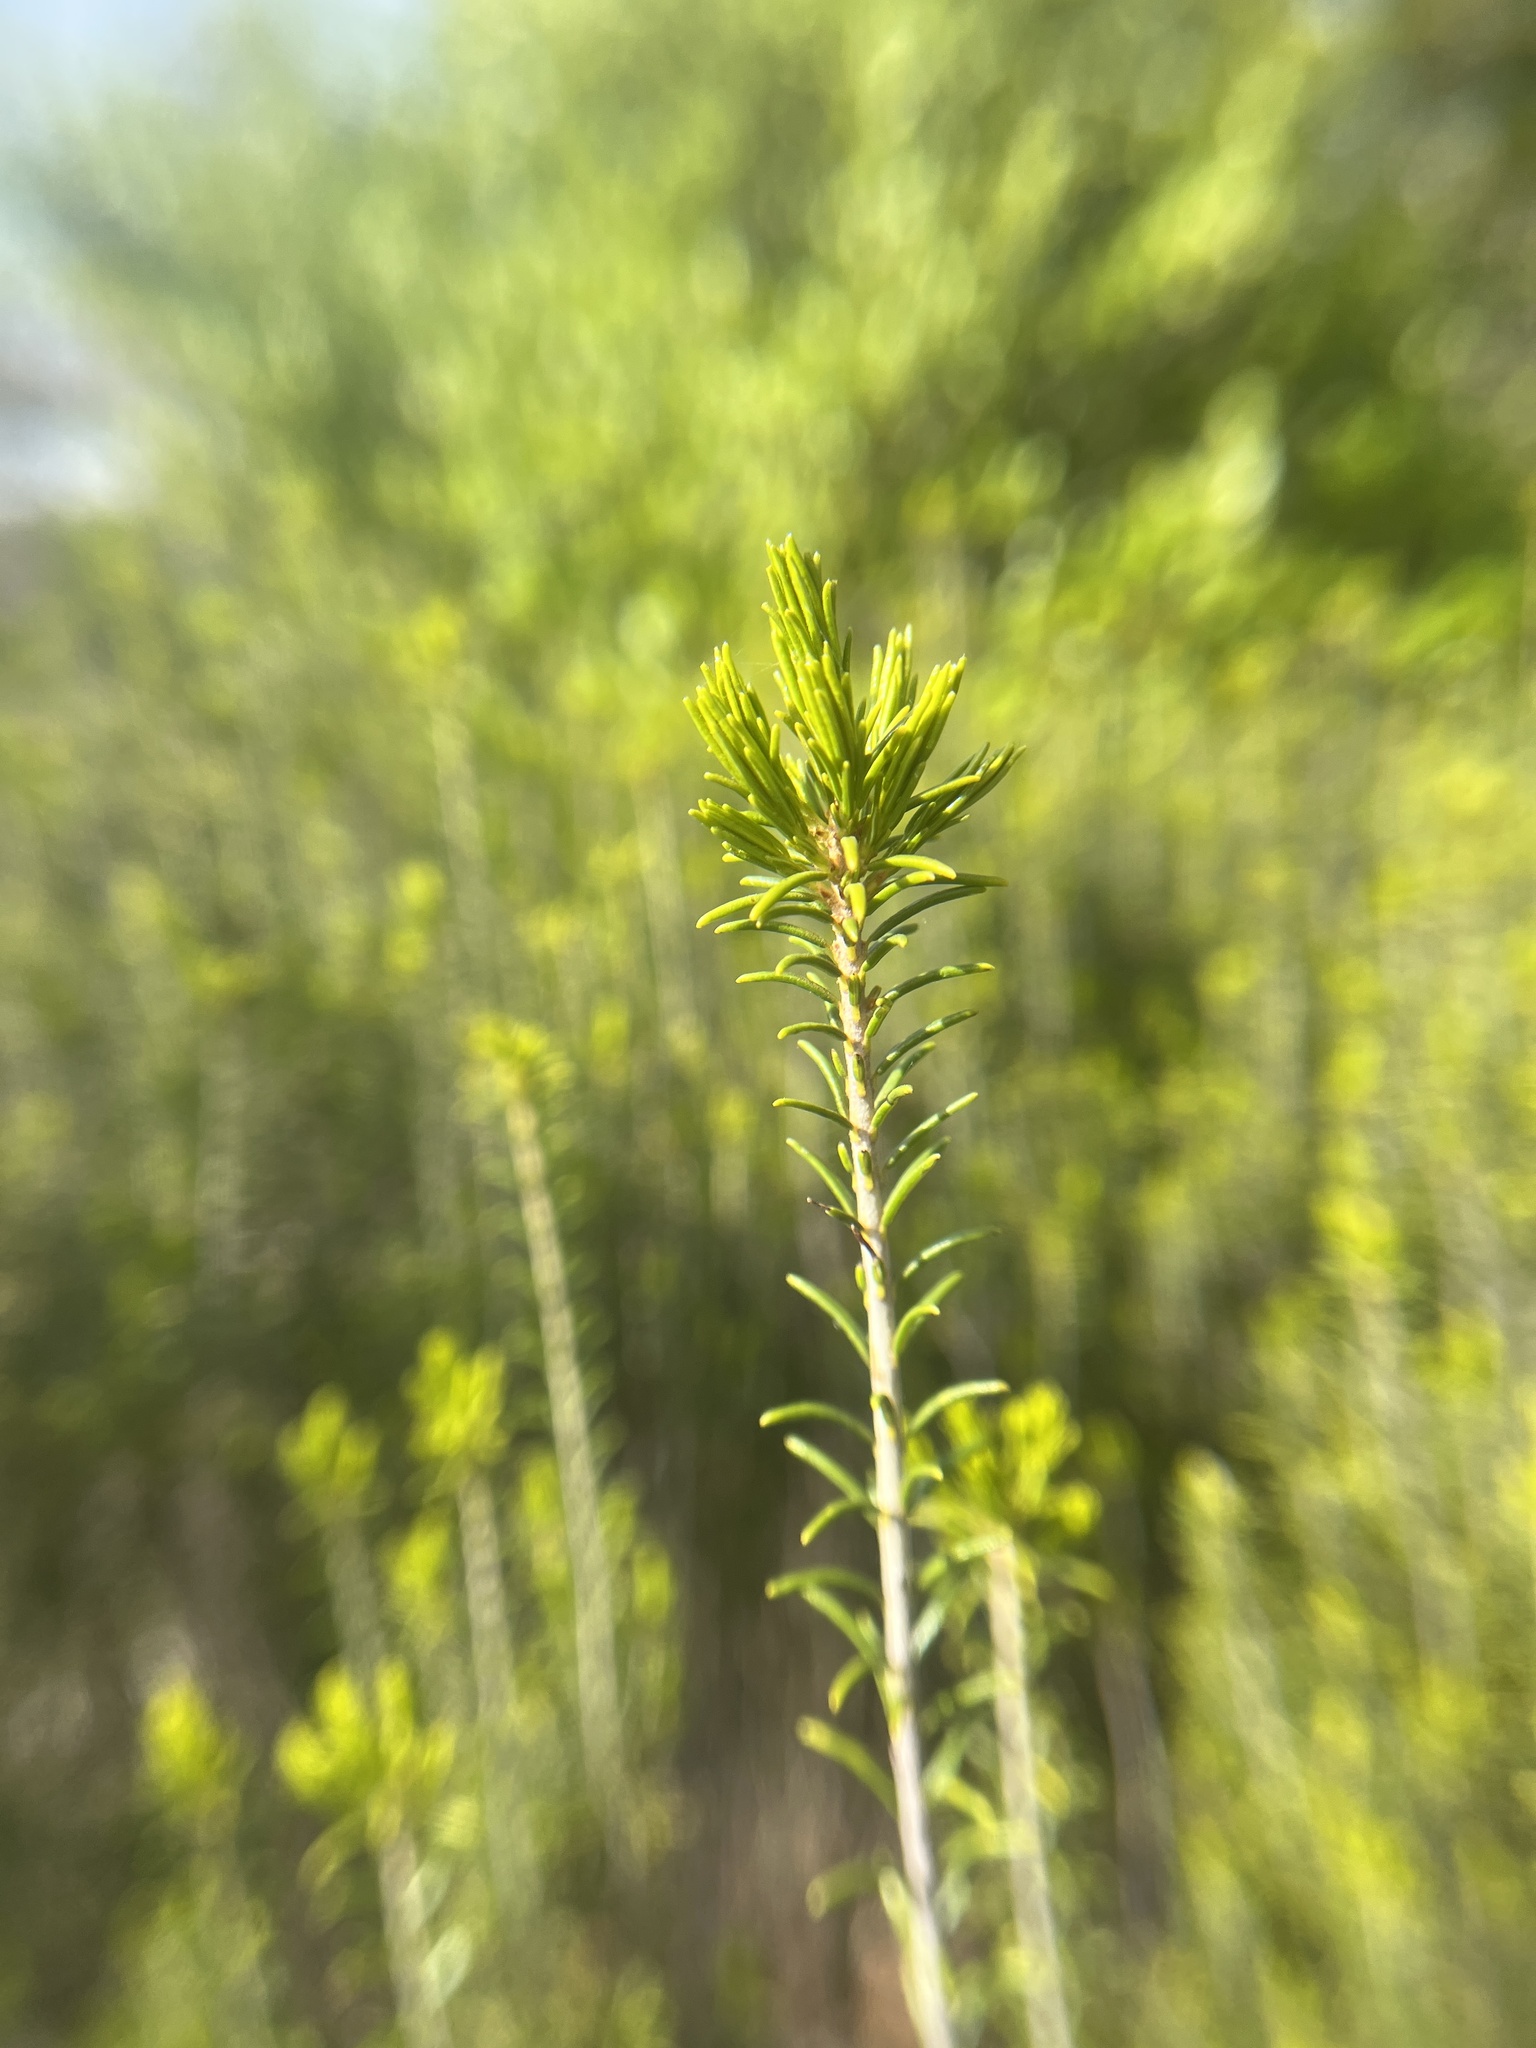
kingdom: Plantae
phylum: Tracheophyta
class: Magnoliopsida
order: Ericales
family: Ericaceae
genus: Ceratiola
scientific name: Ceratiola ericoides
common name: Sandhill-rosemary
